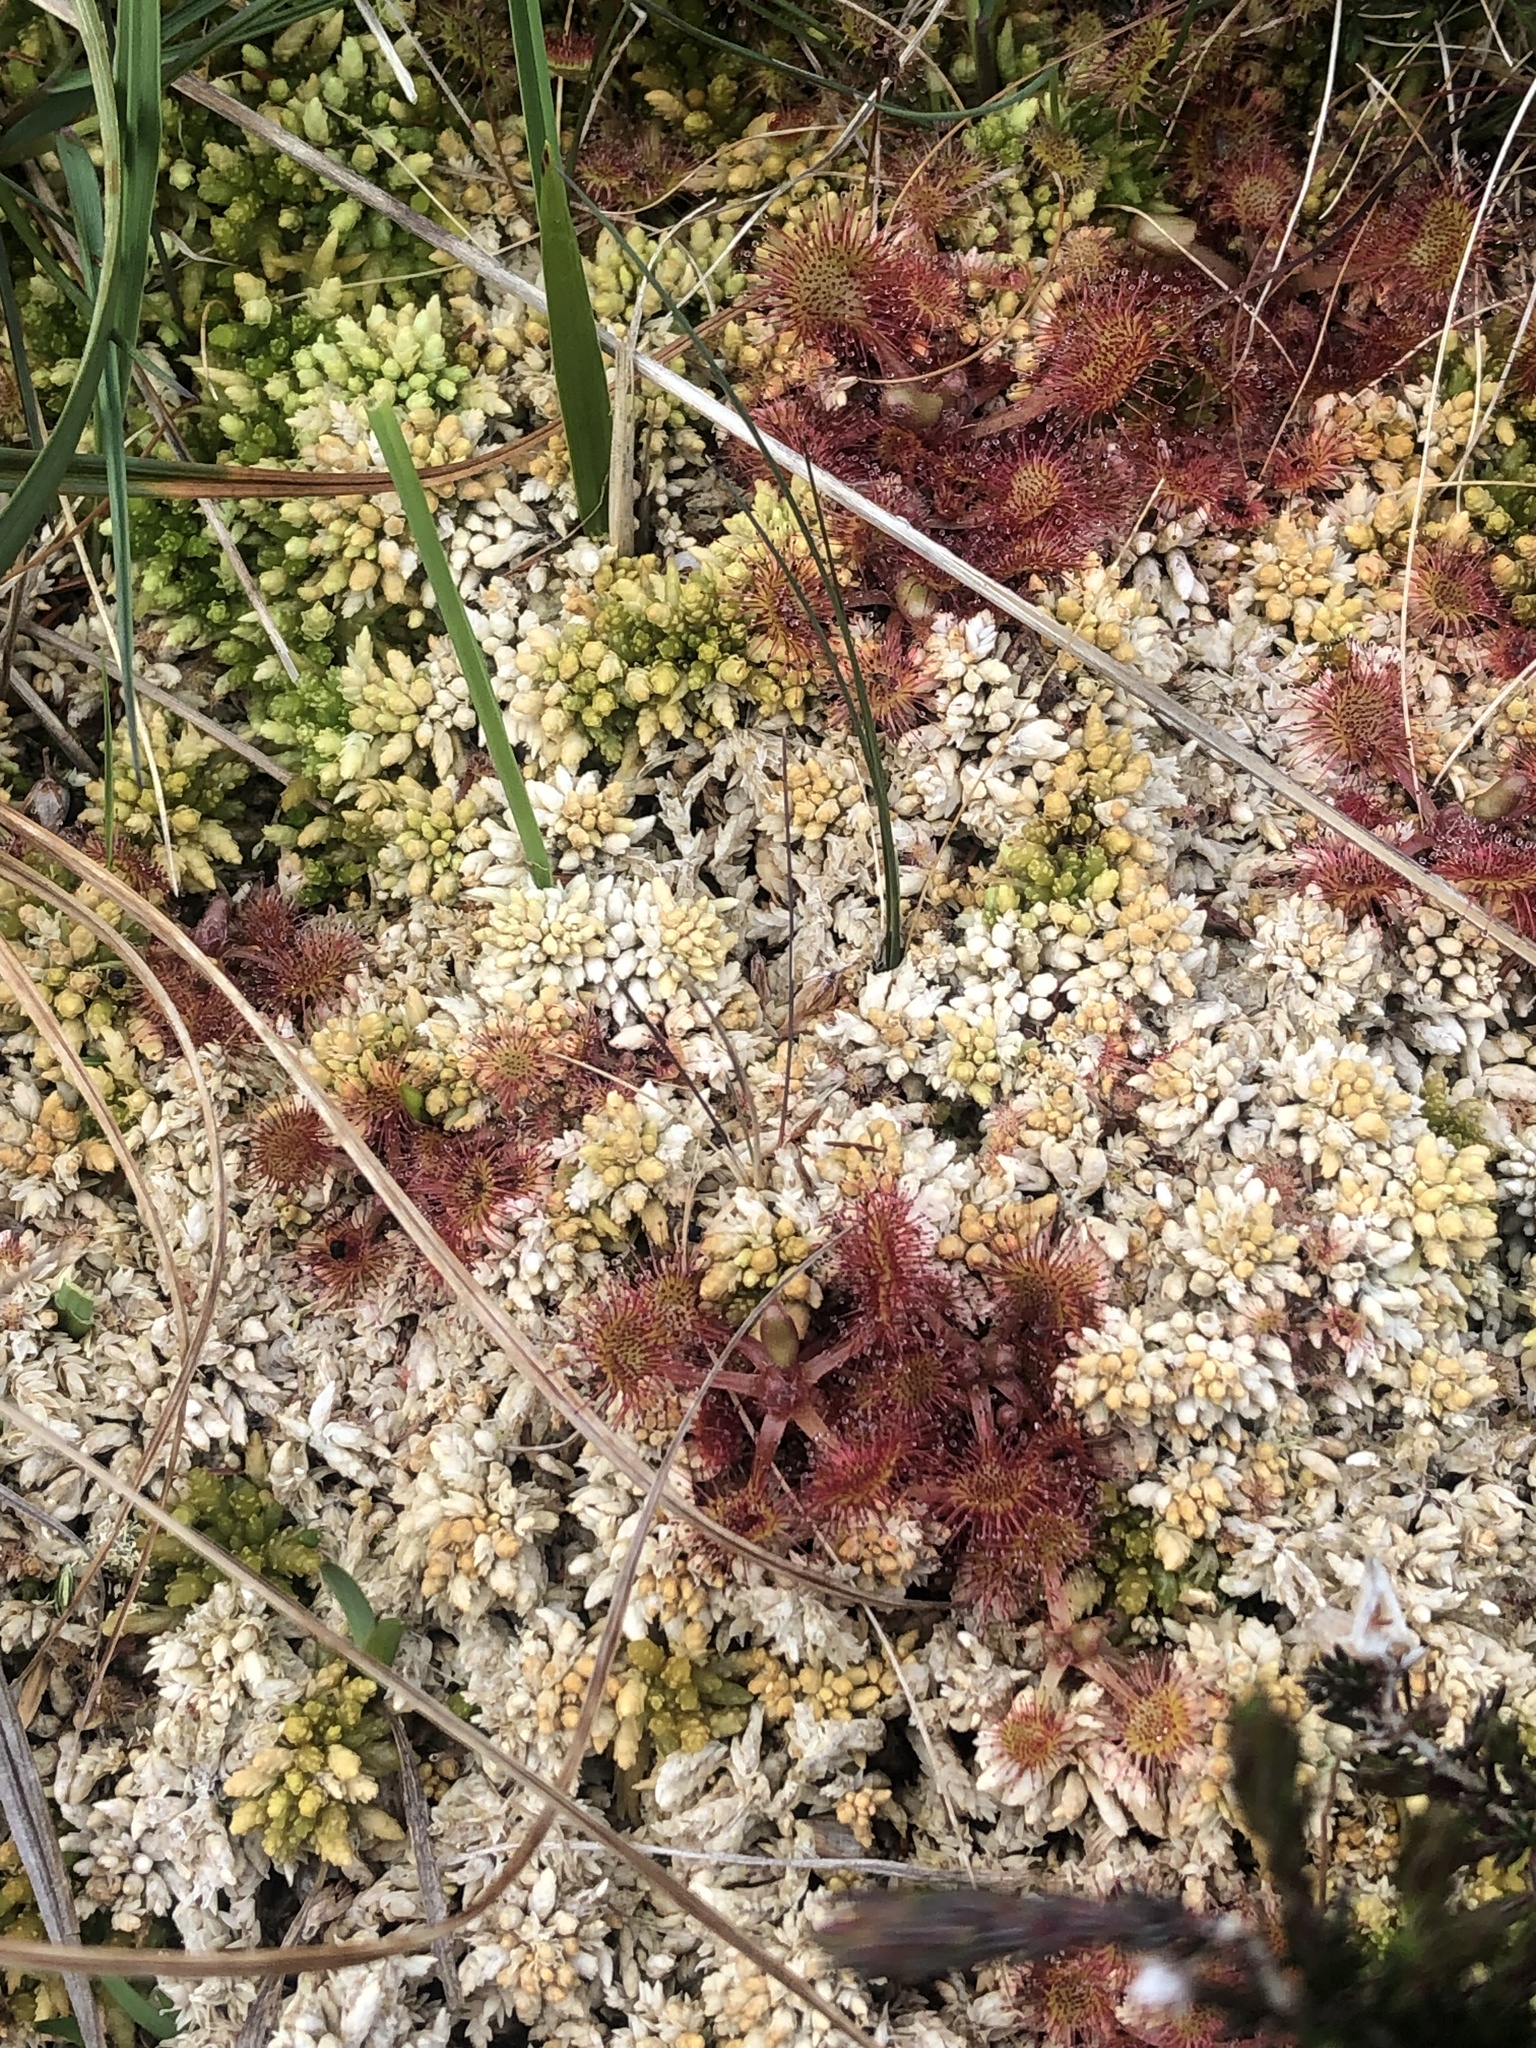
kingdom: Plantae
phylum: Tracheophyta
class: Magnoliopsida
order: Caryophyllales
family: Droseraceae
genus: Drosera
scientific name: Drosera rotundifolia
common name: Round-leaved sundew
